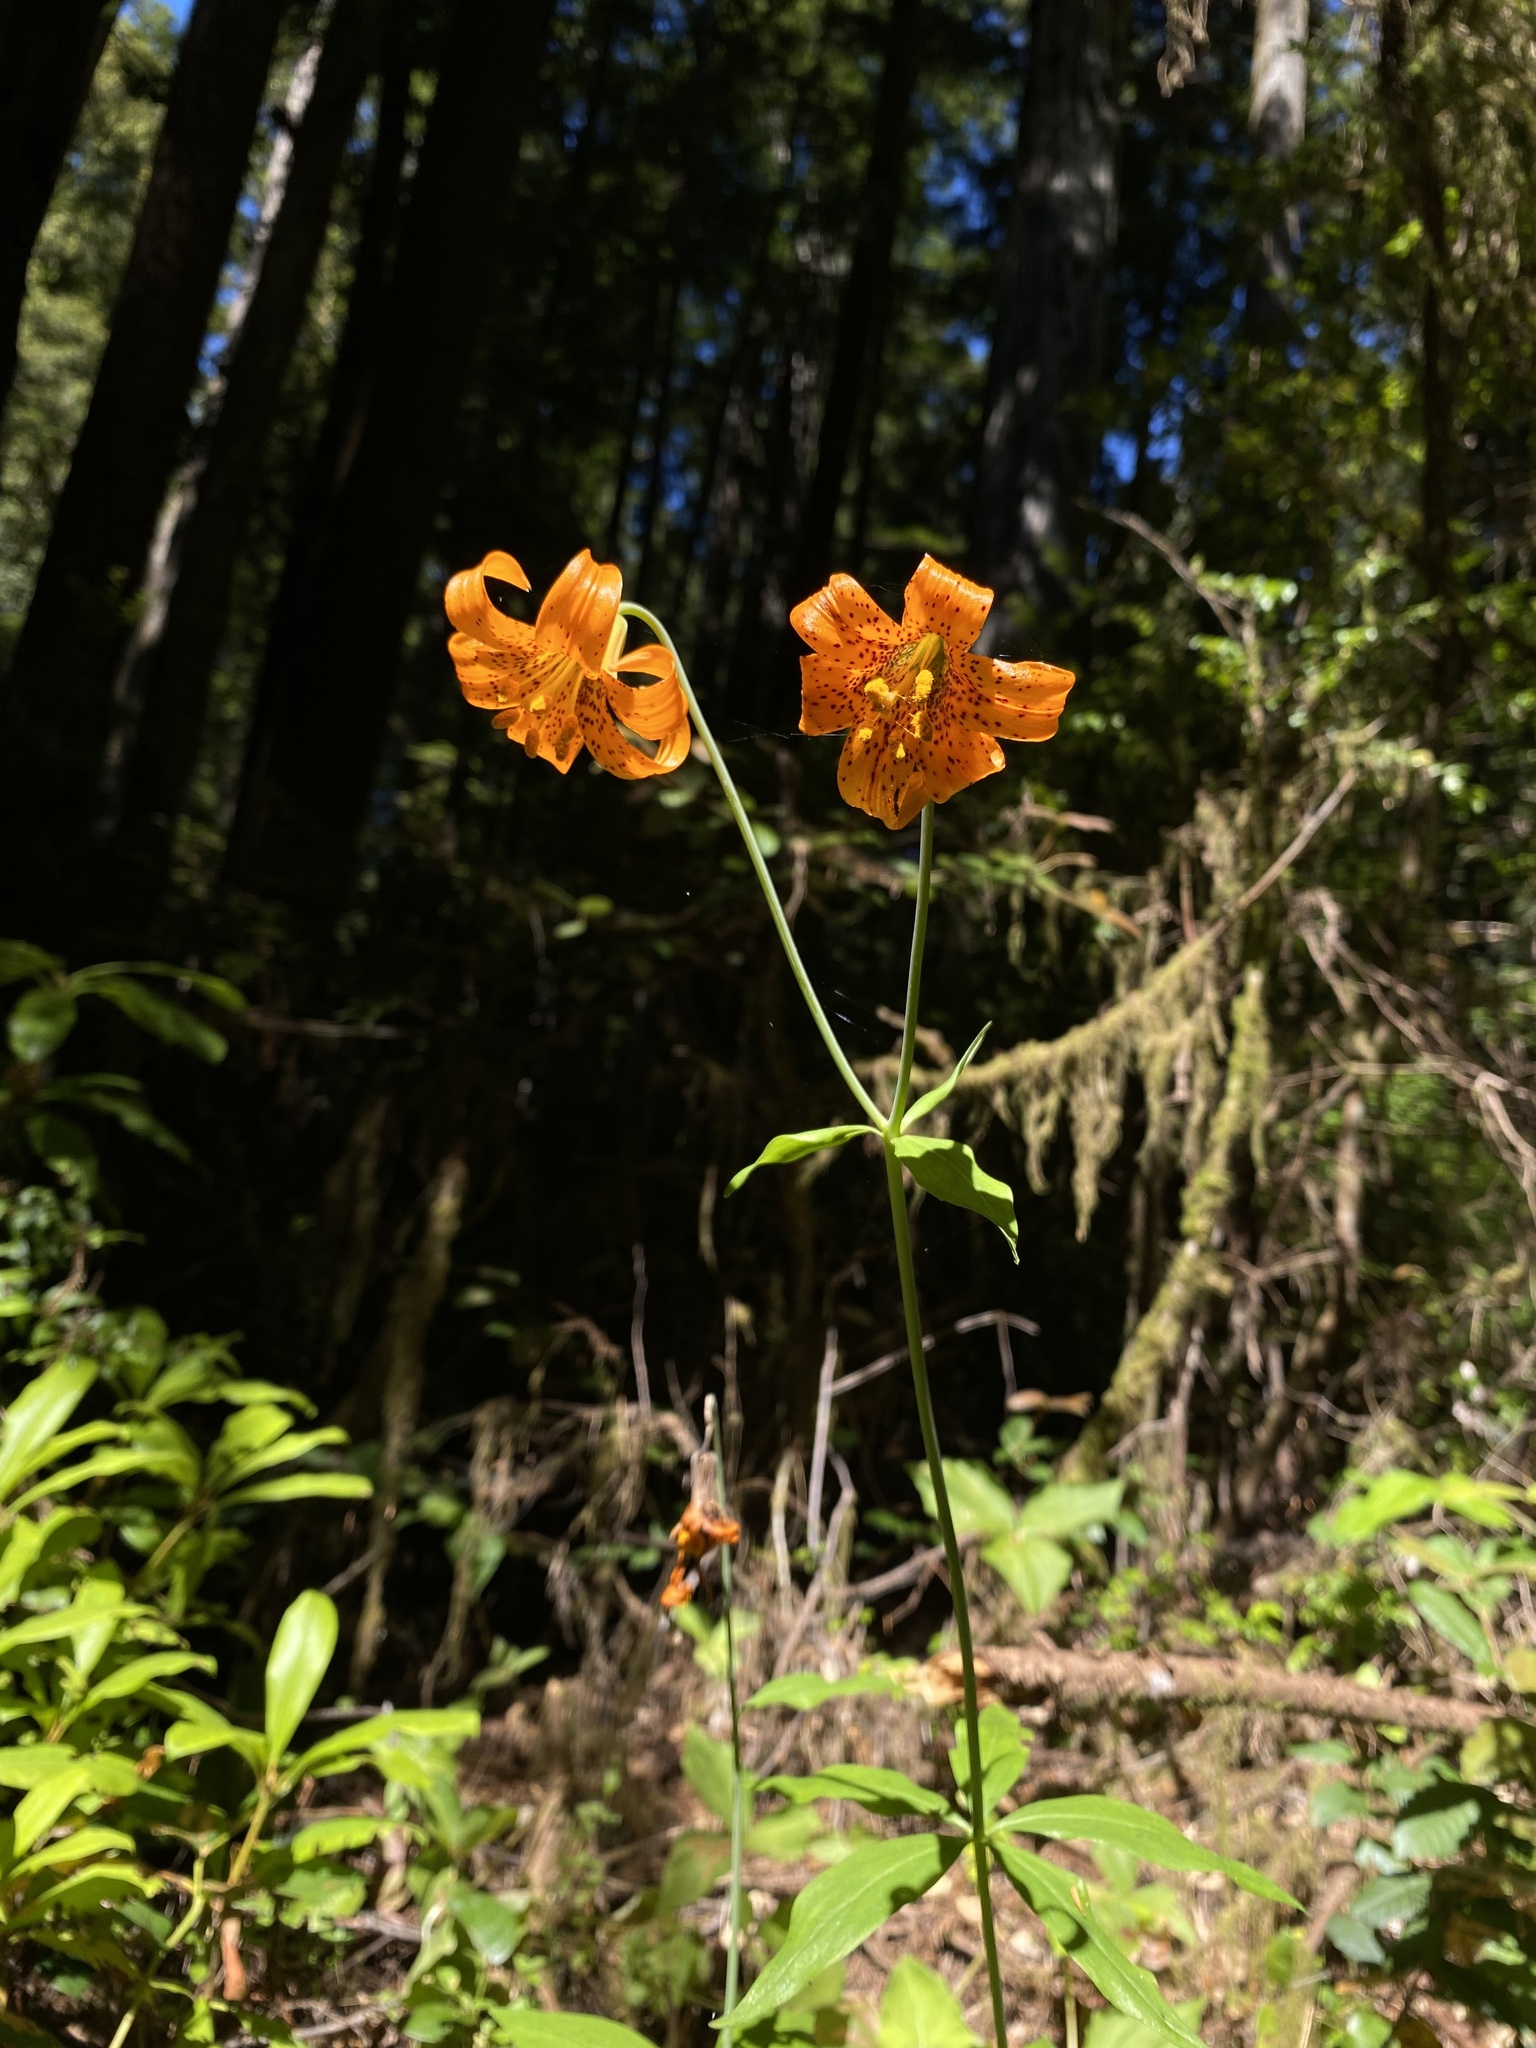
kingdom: Plantae
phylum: Tracheophyta
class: Liliopsida
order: Liliales
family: Liliaceae
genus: Lilium
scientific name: Lilium columbianum
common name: Columbia lily
